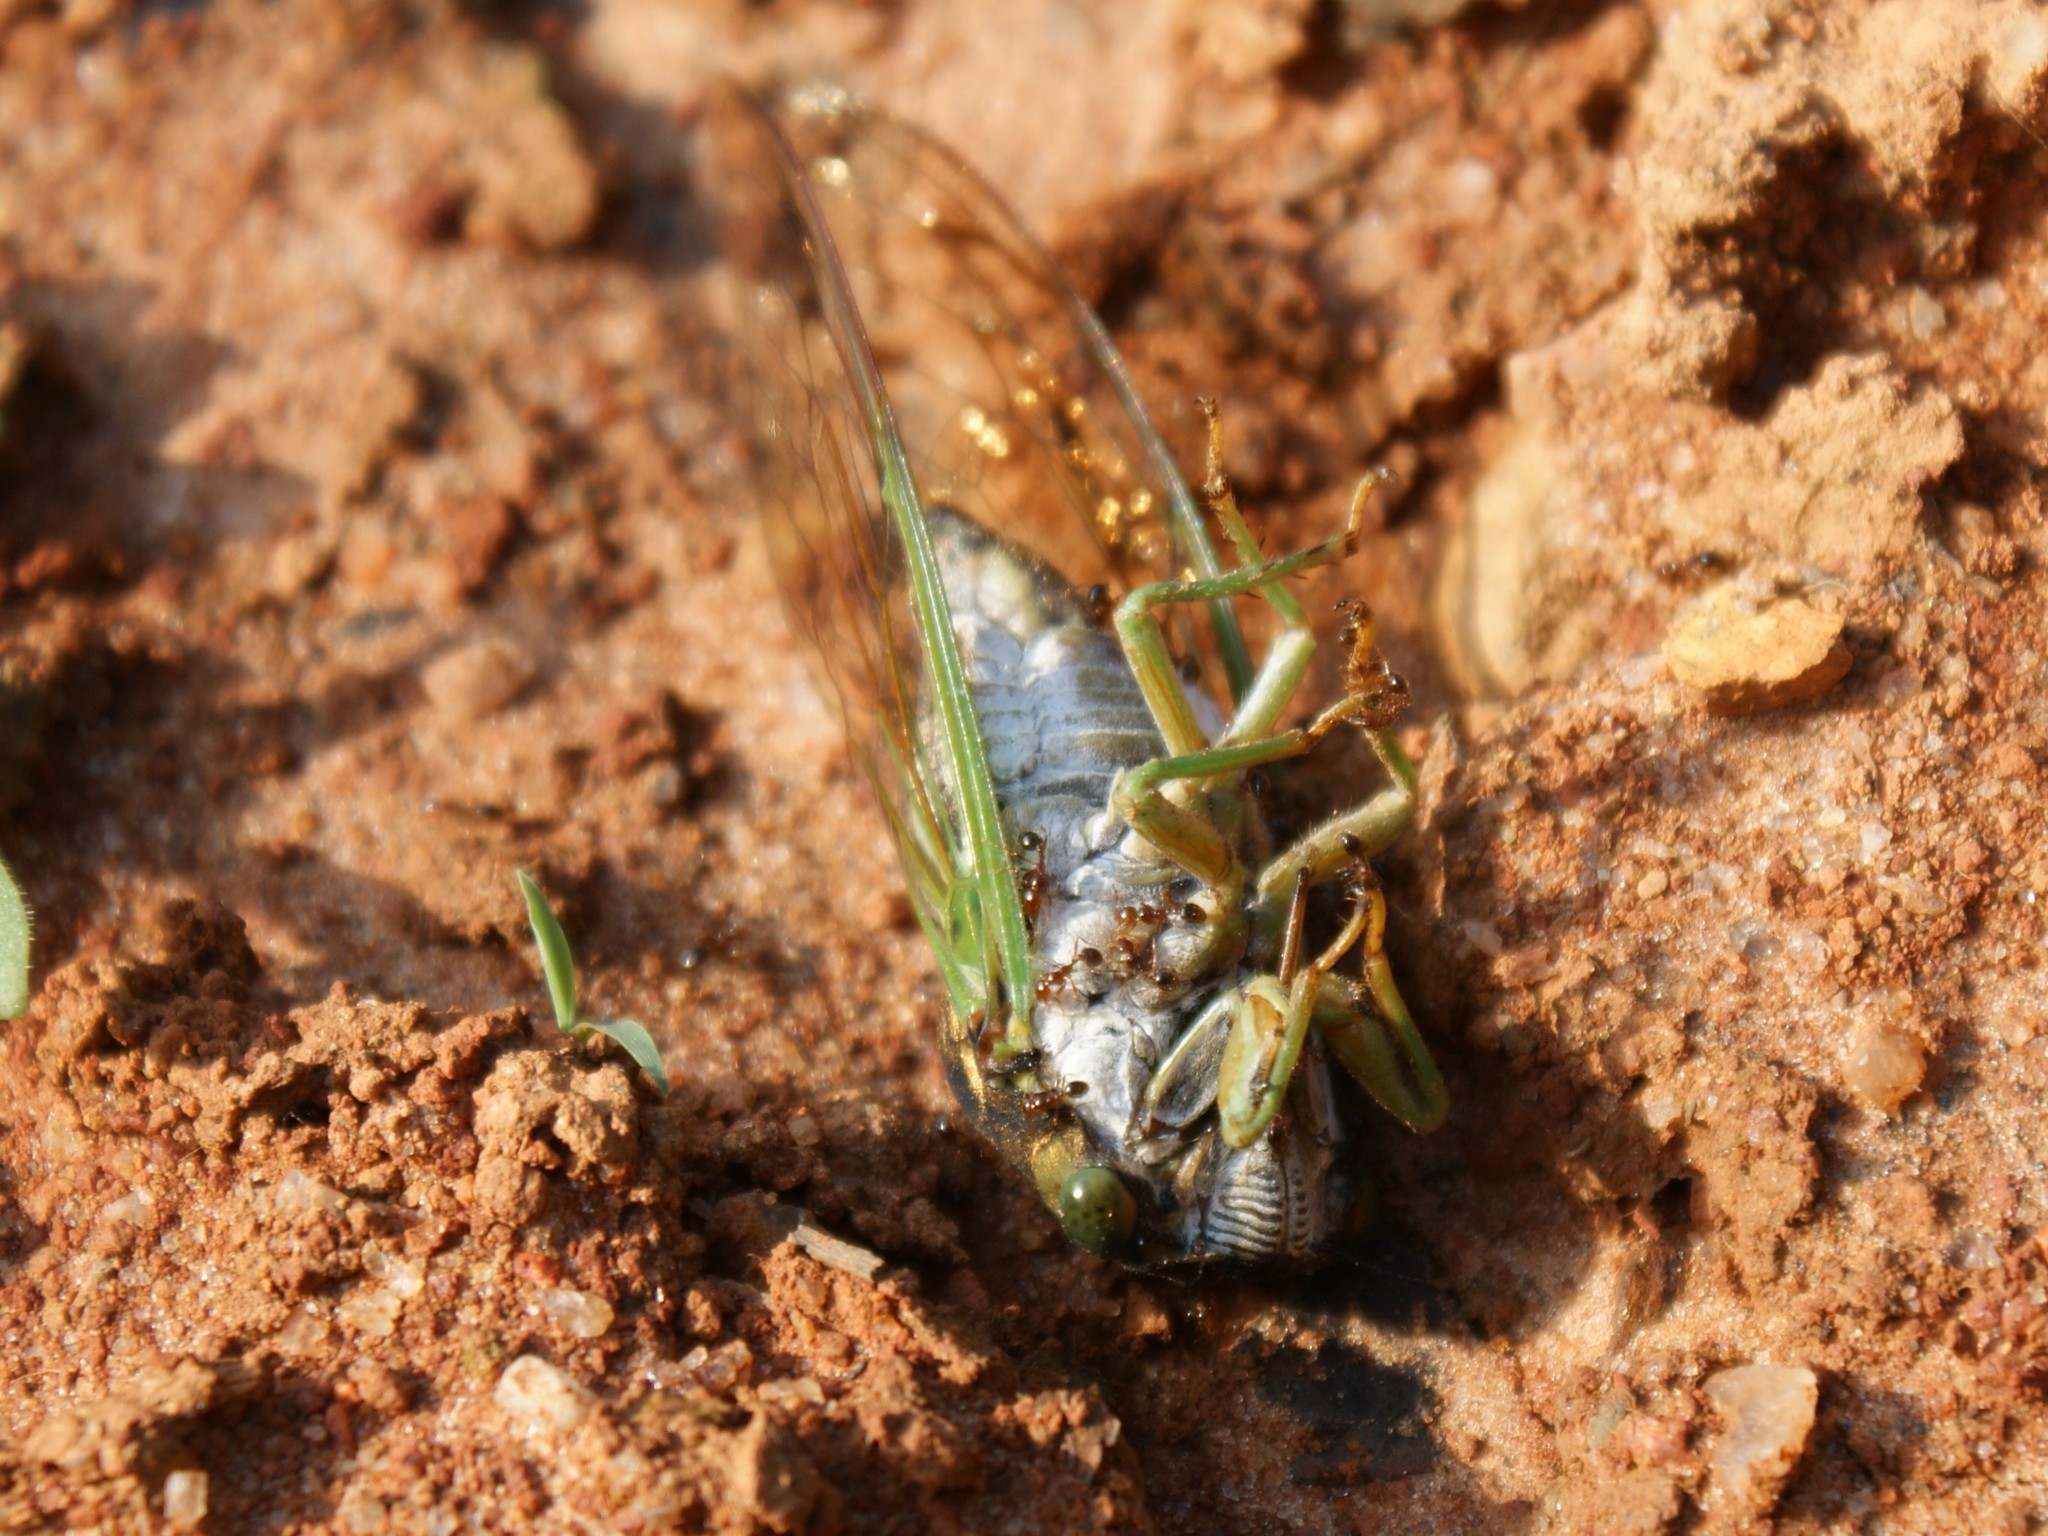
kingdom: Animalia
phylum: Arthropoda
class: Insecta
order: Hemiptera
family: Cicadidae
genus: Neotibicen
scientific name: Neotibicen tibicen
